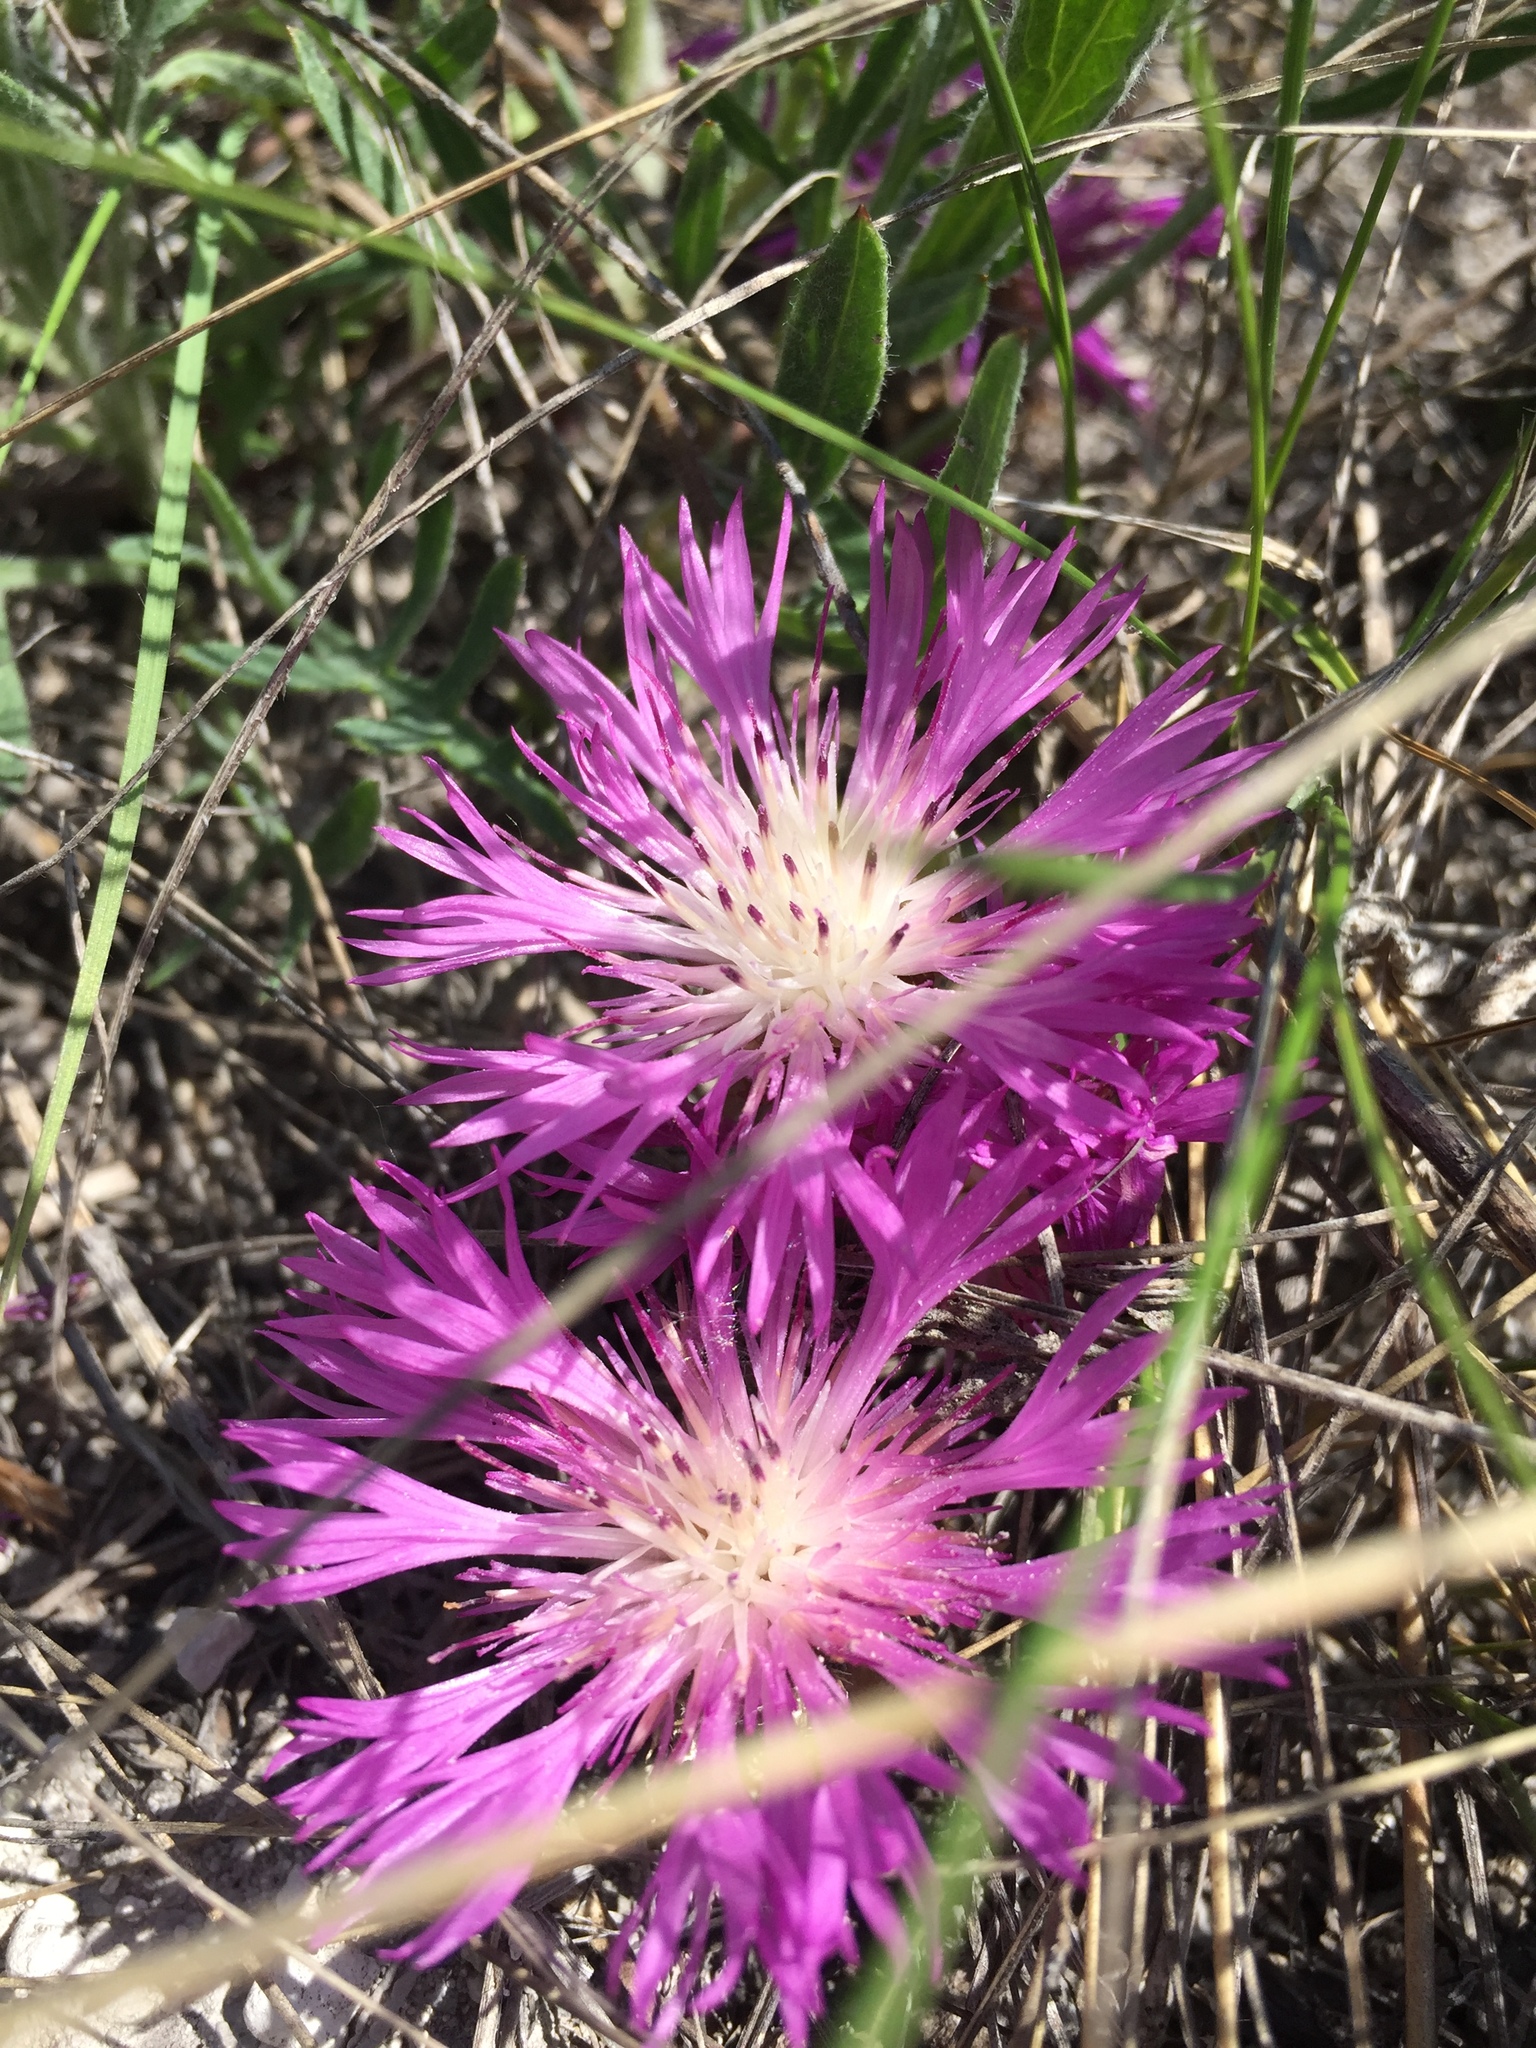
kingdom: Plantae
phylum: Tracheophyta
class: Magnoliopsida
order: Asterales
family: Asteraceae
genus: Psephellus
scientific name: Psephellus marschallianus
